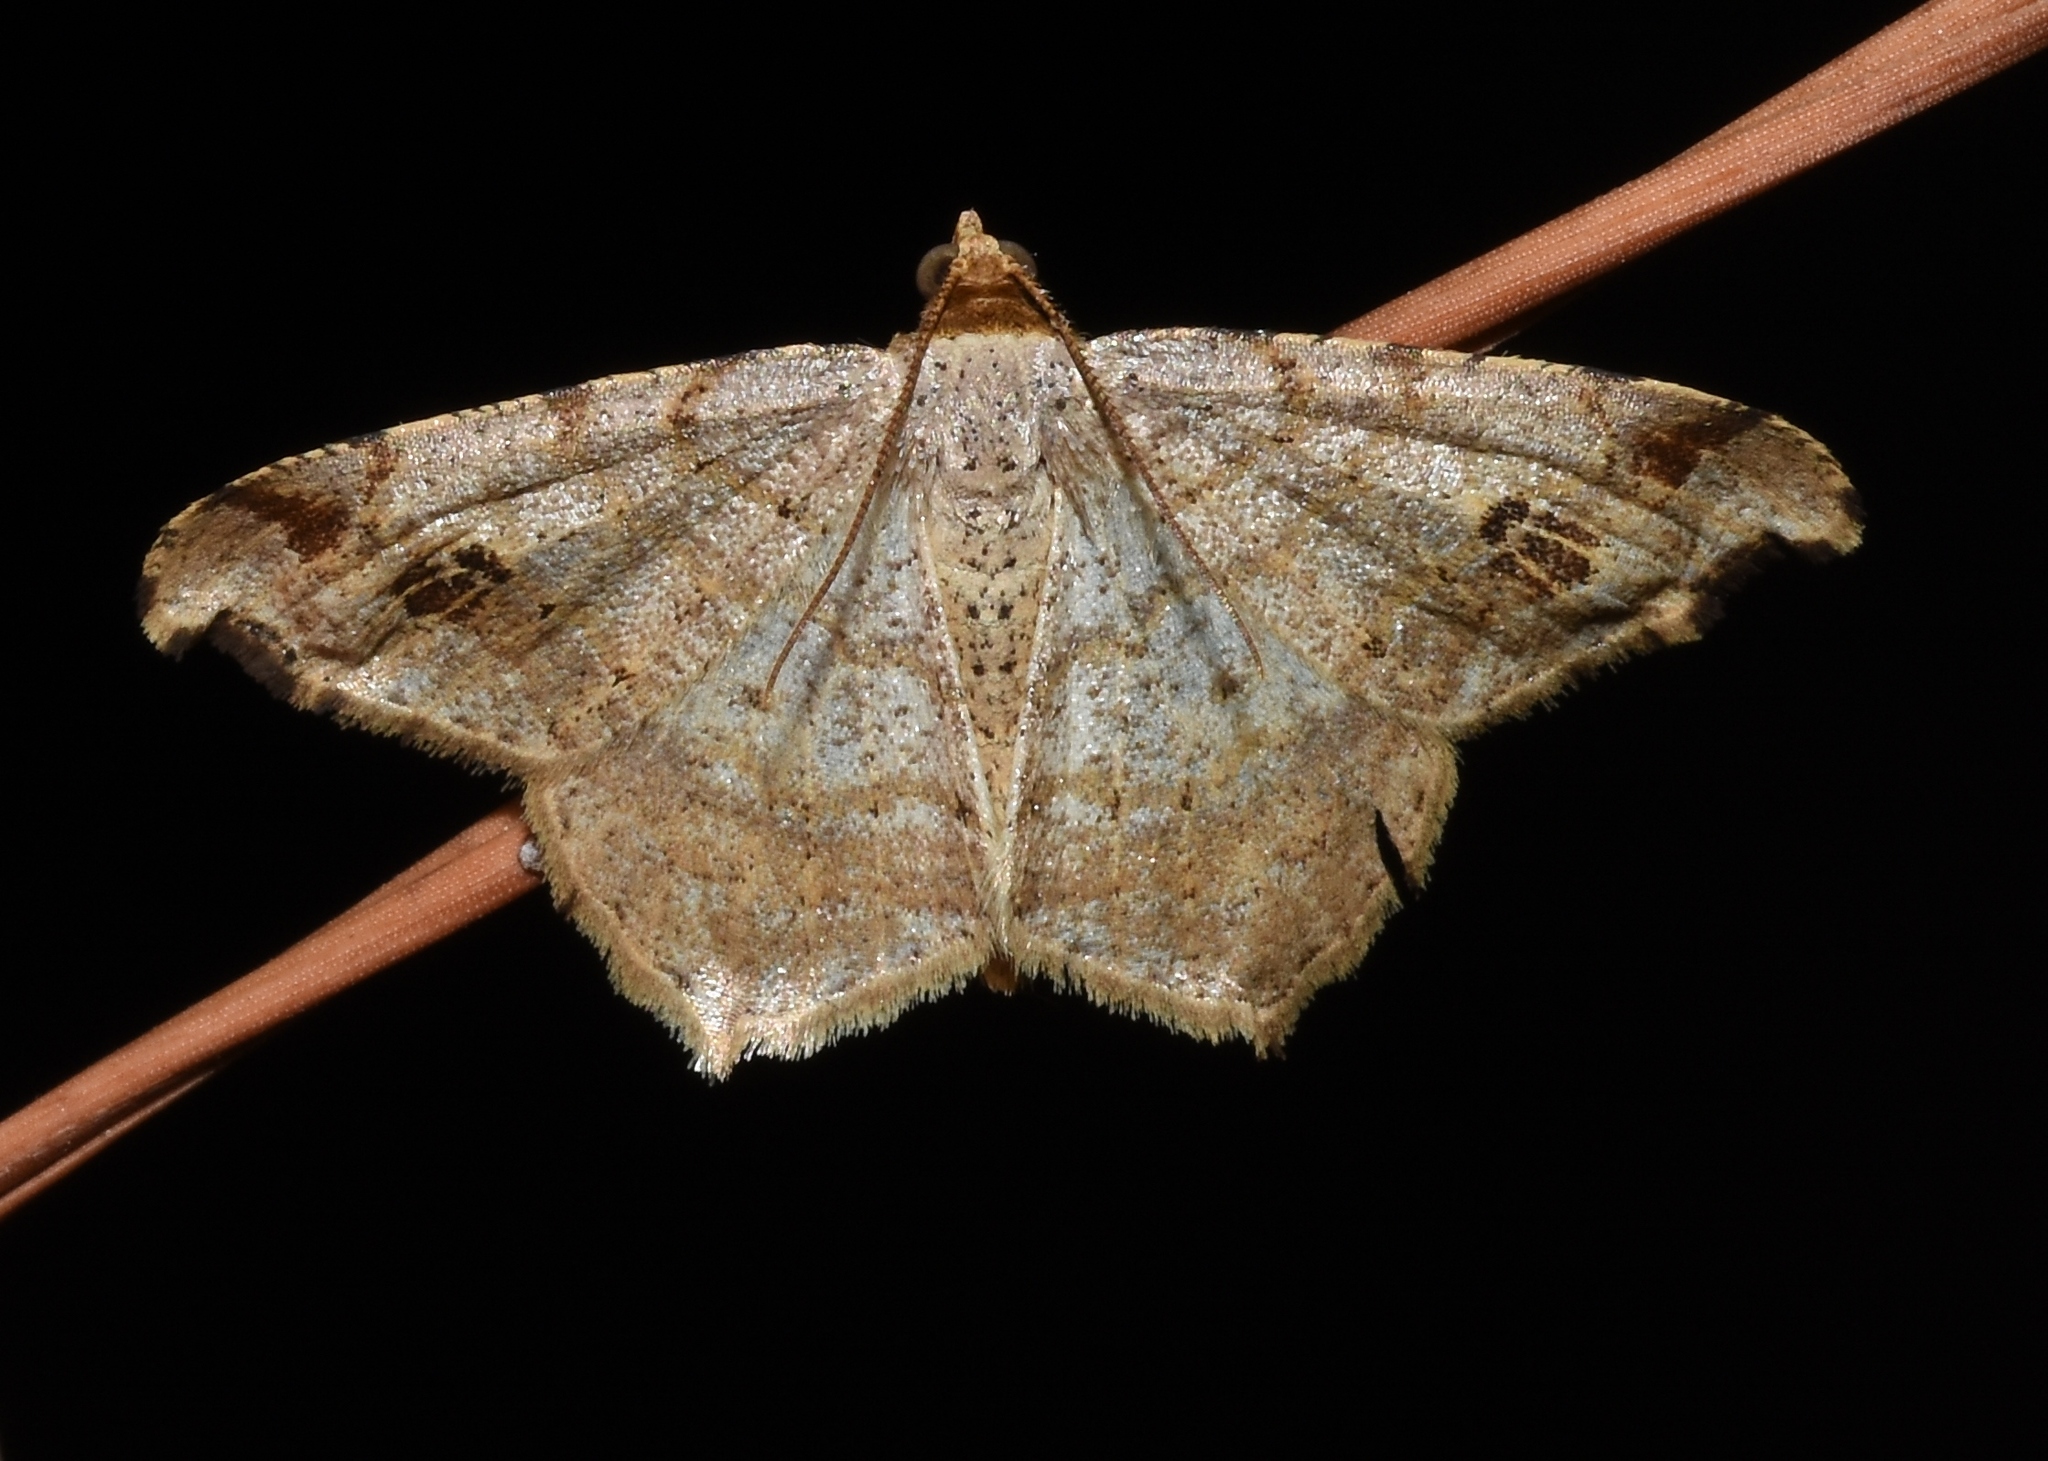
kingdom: Animalia
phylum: Arthropoda
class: Insecta
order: Lepidoptera
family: Geometridae
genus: Macaria
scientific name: Macaria aemulataria
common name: Common angle
